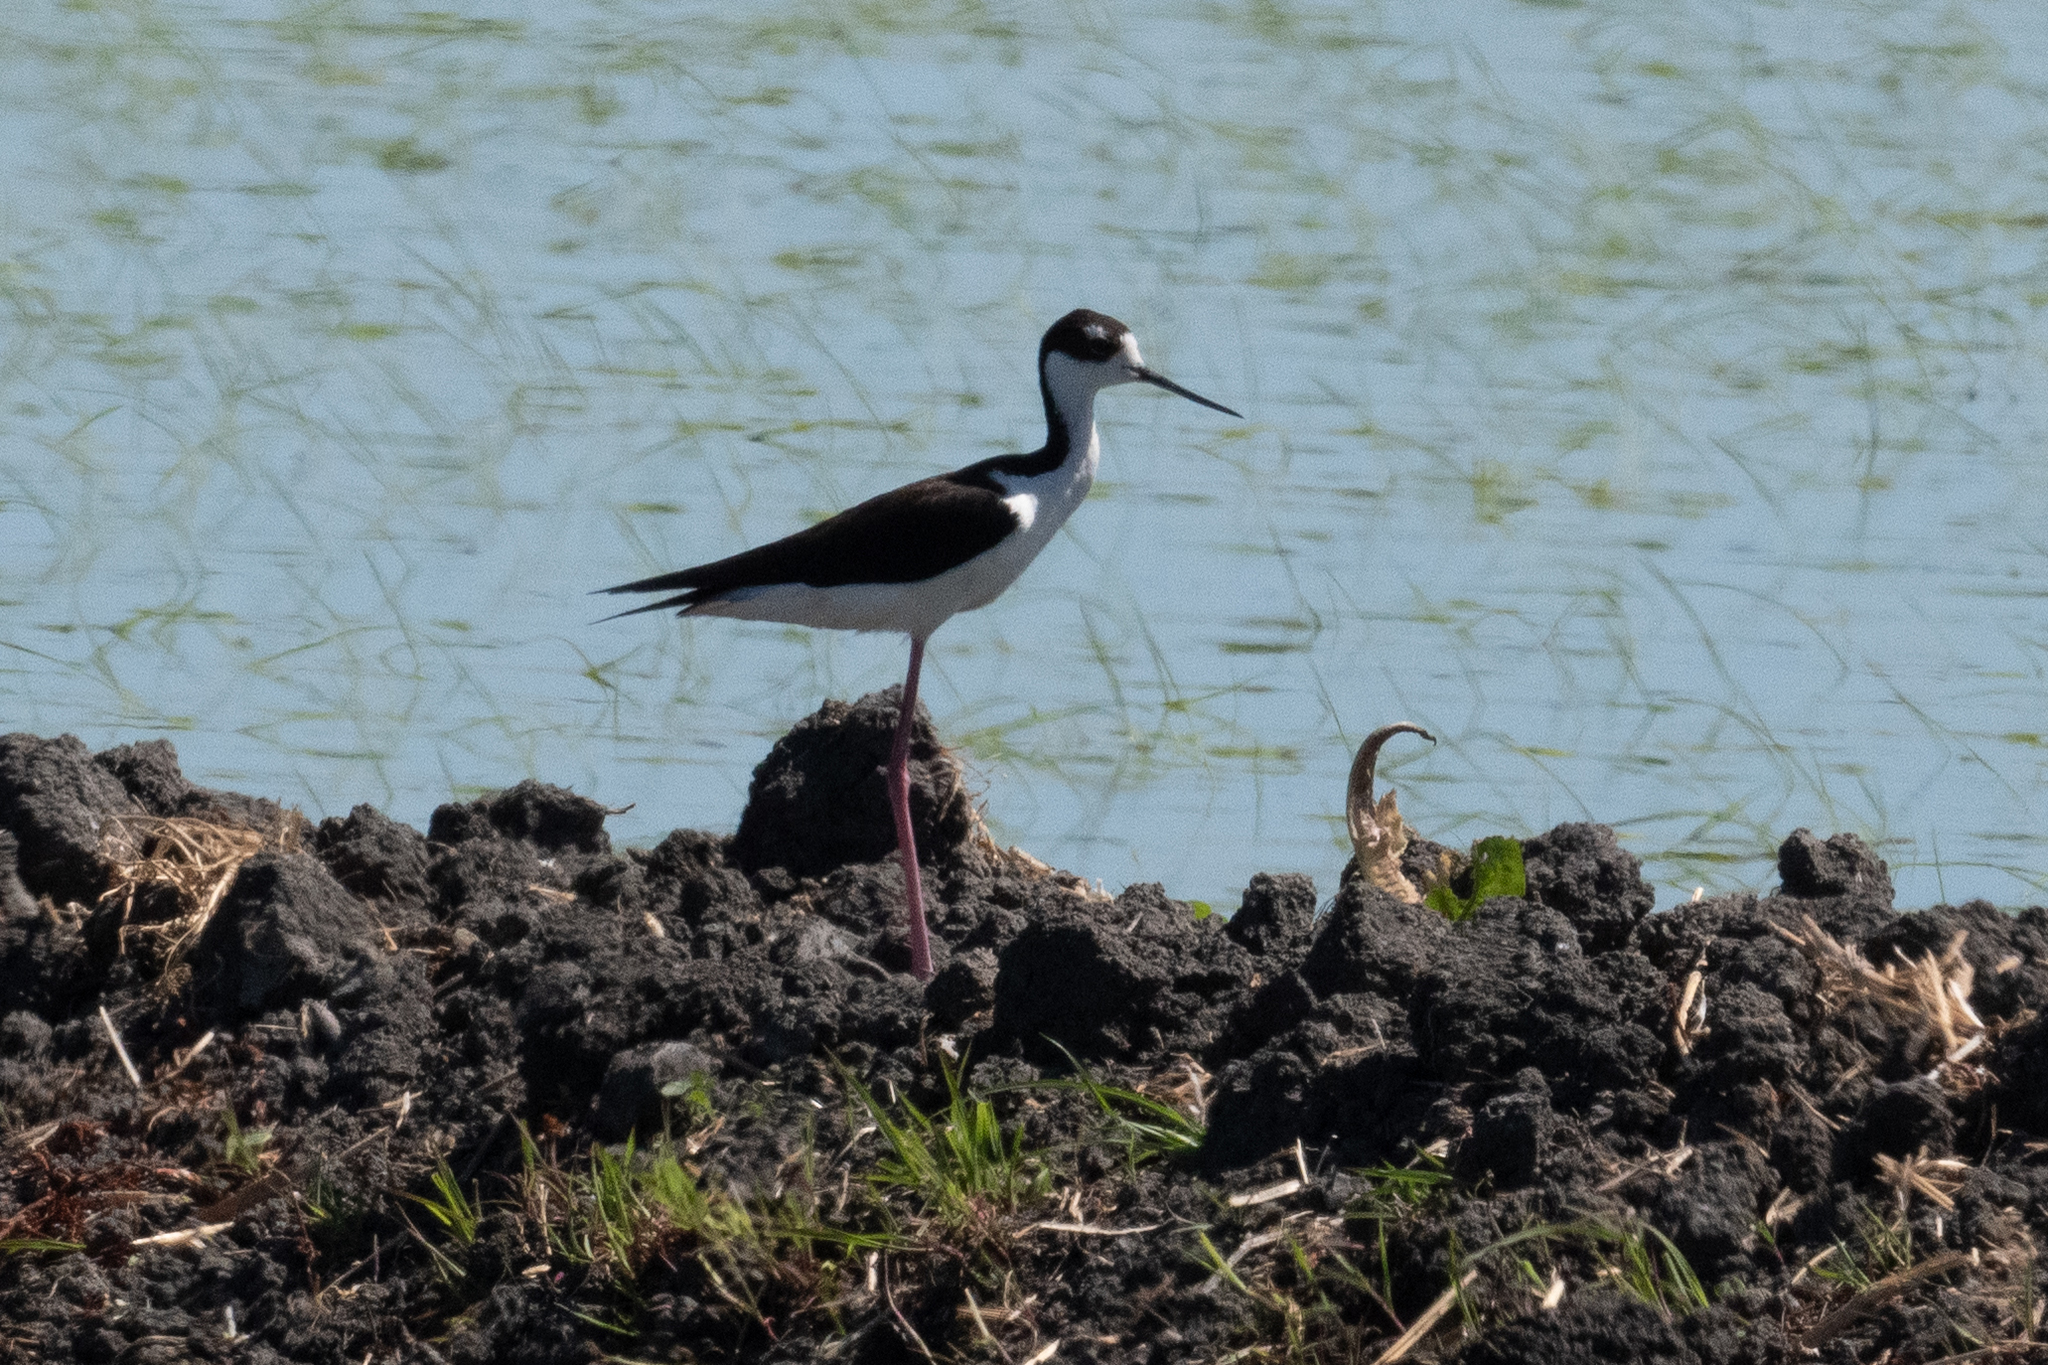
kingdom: Animalia
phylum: Chordata
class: Aves
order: Charadriiformes
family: Recurvirostridae
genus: Himantopus
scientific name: Himantopus mexicanus
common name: Black-necked stilt
